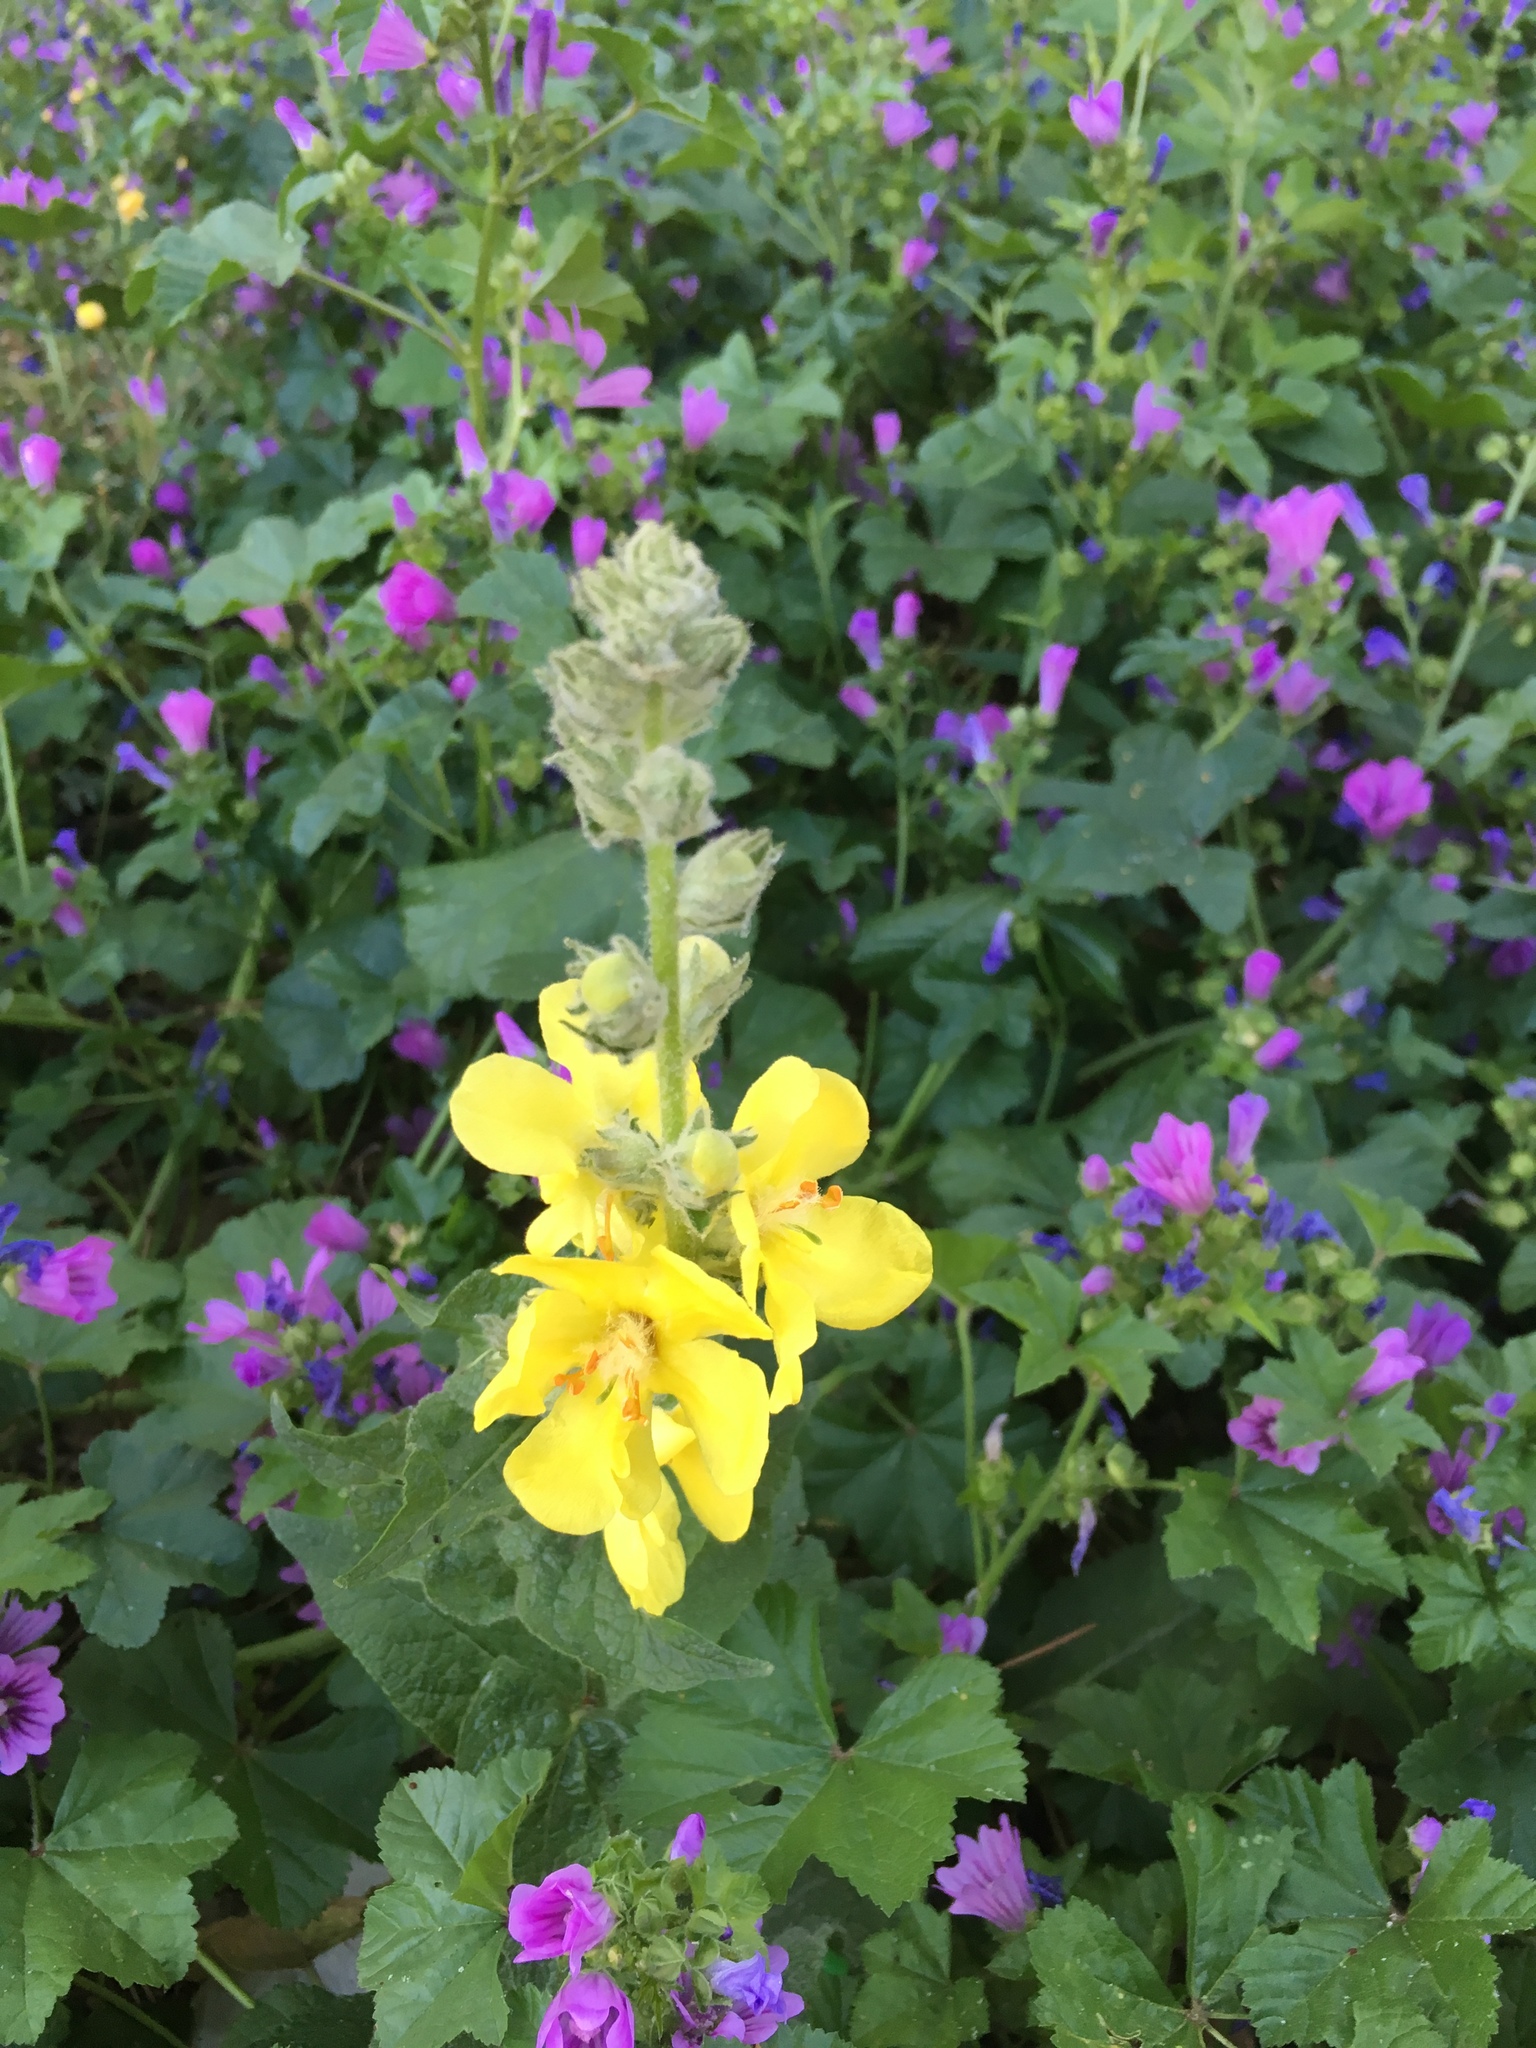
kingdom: Plantae
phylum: Tracheophyta
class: Magnoliopsida
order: Lamiales
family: Scrophulariaceae
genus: Verbascum
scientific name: Verbascum phlomoides
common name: Orange mullein
